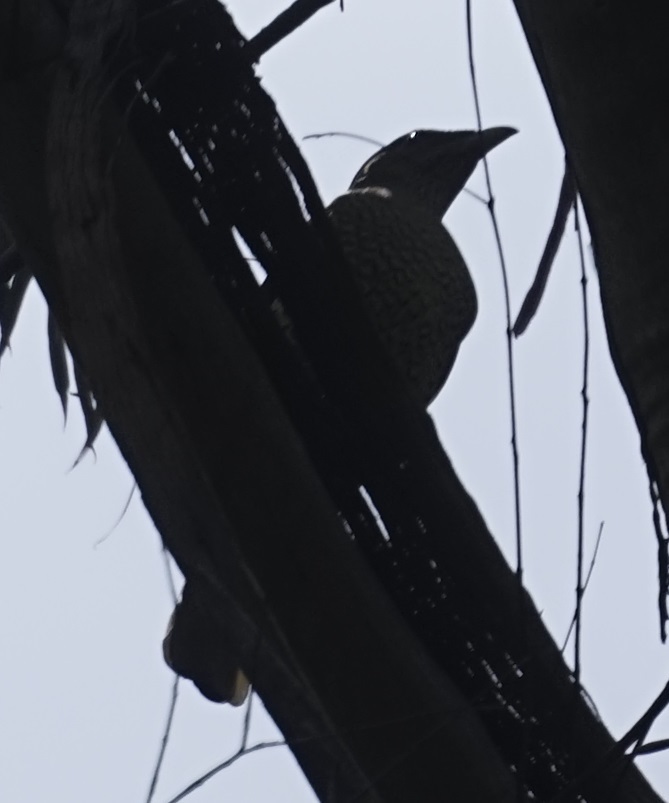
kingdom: Animalia
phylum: Chordata
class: Aves
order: Passeriformes
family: Ptilonorhynchidae
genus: Ptilonorhynchus
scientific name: Ptilonorhynchus violaceus
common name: Satin bowerbird
